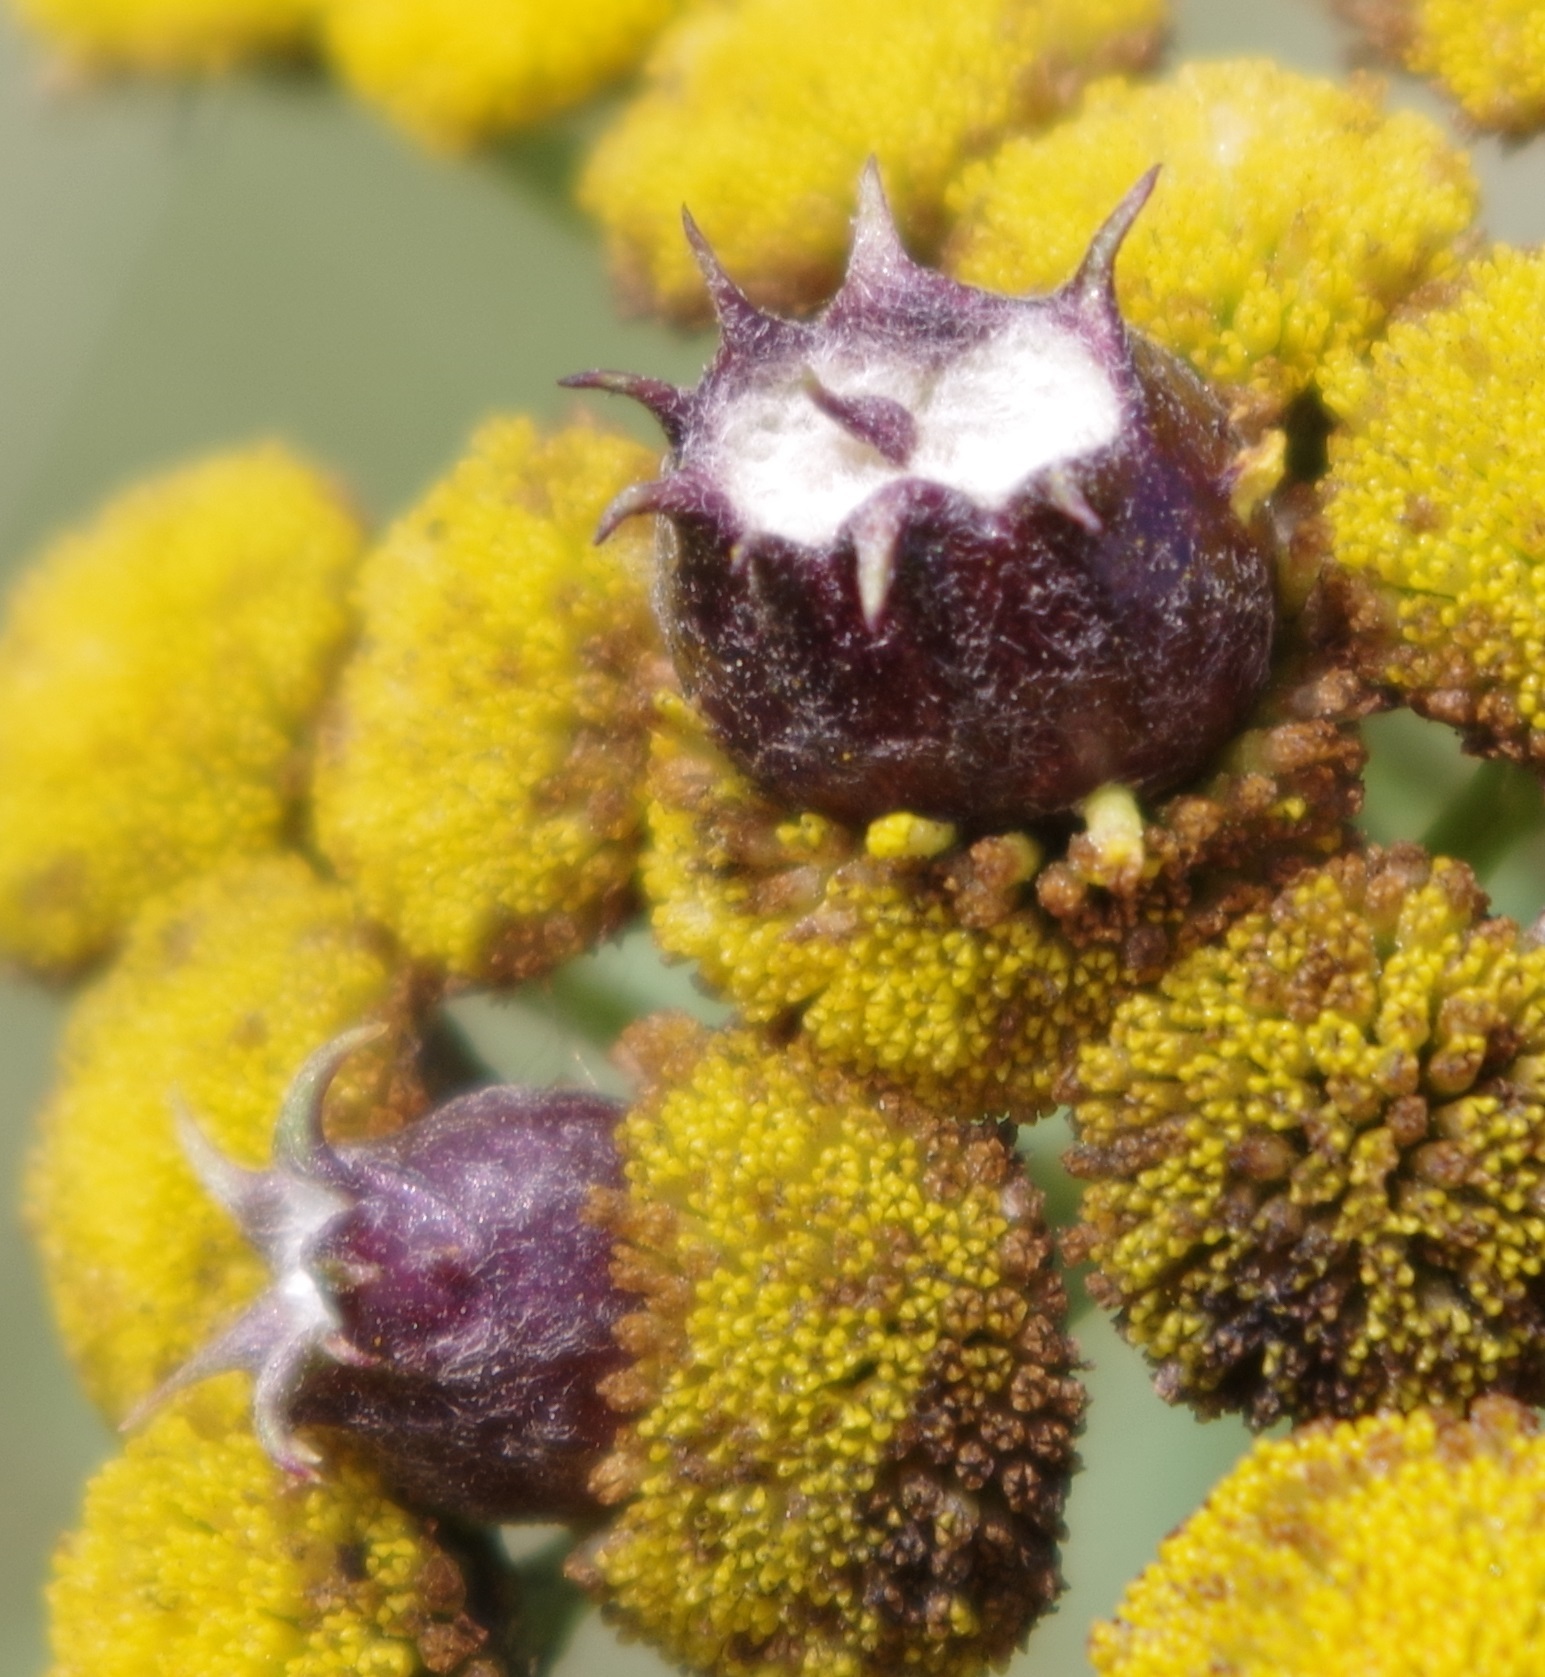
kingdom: Animalia
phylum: Arthropoda
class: Insecta
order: Diptera
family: Cecidomyiidae
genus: Rhopalomyia
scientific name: Rhopalomyia tanaceticolus
